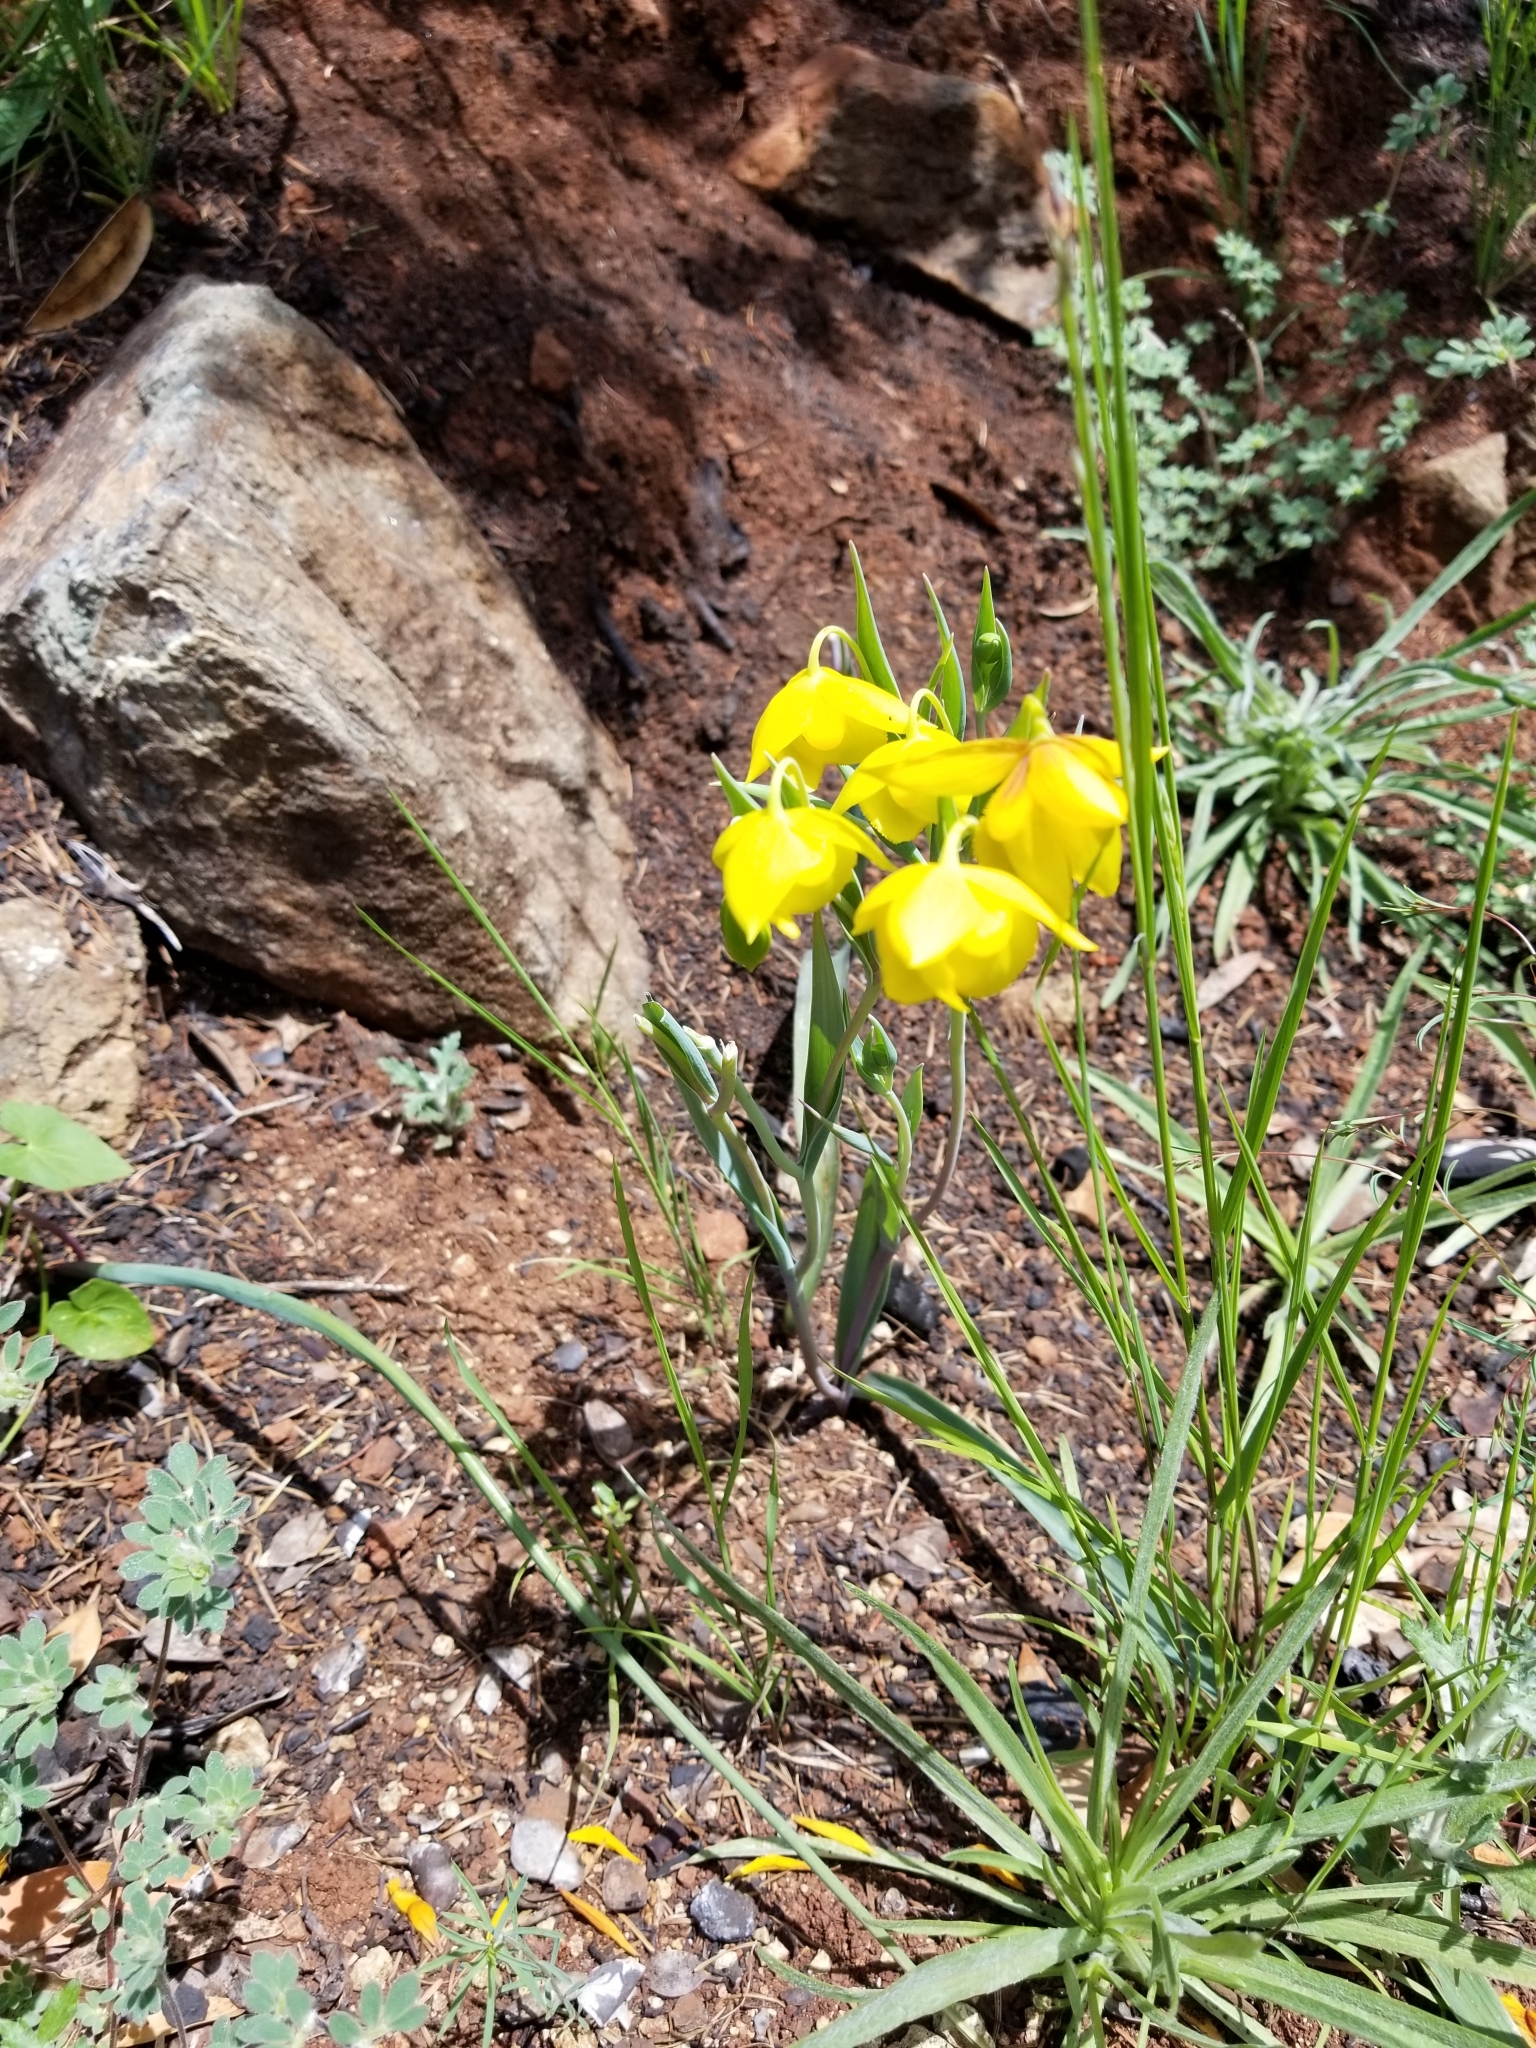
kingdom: Plantae
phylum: Tracheophyta
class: Liliopsida
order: Liliales
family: Liliaceae
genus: Calochortus
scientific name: Calochortus amabilis
